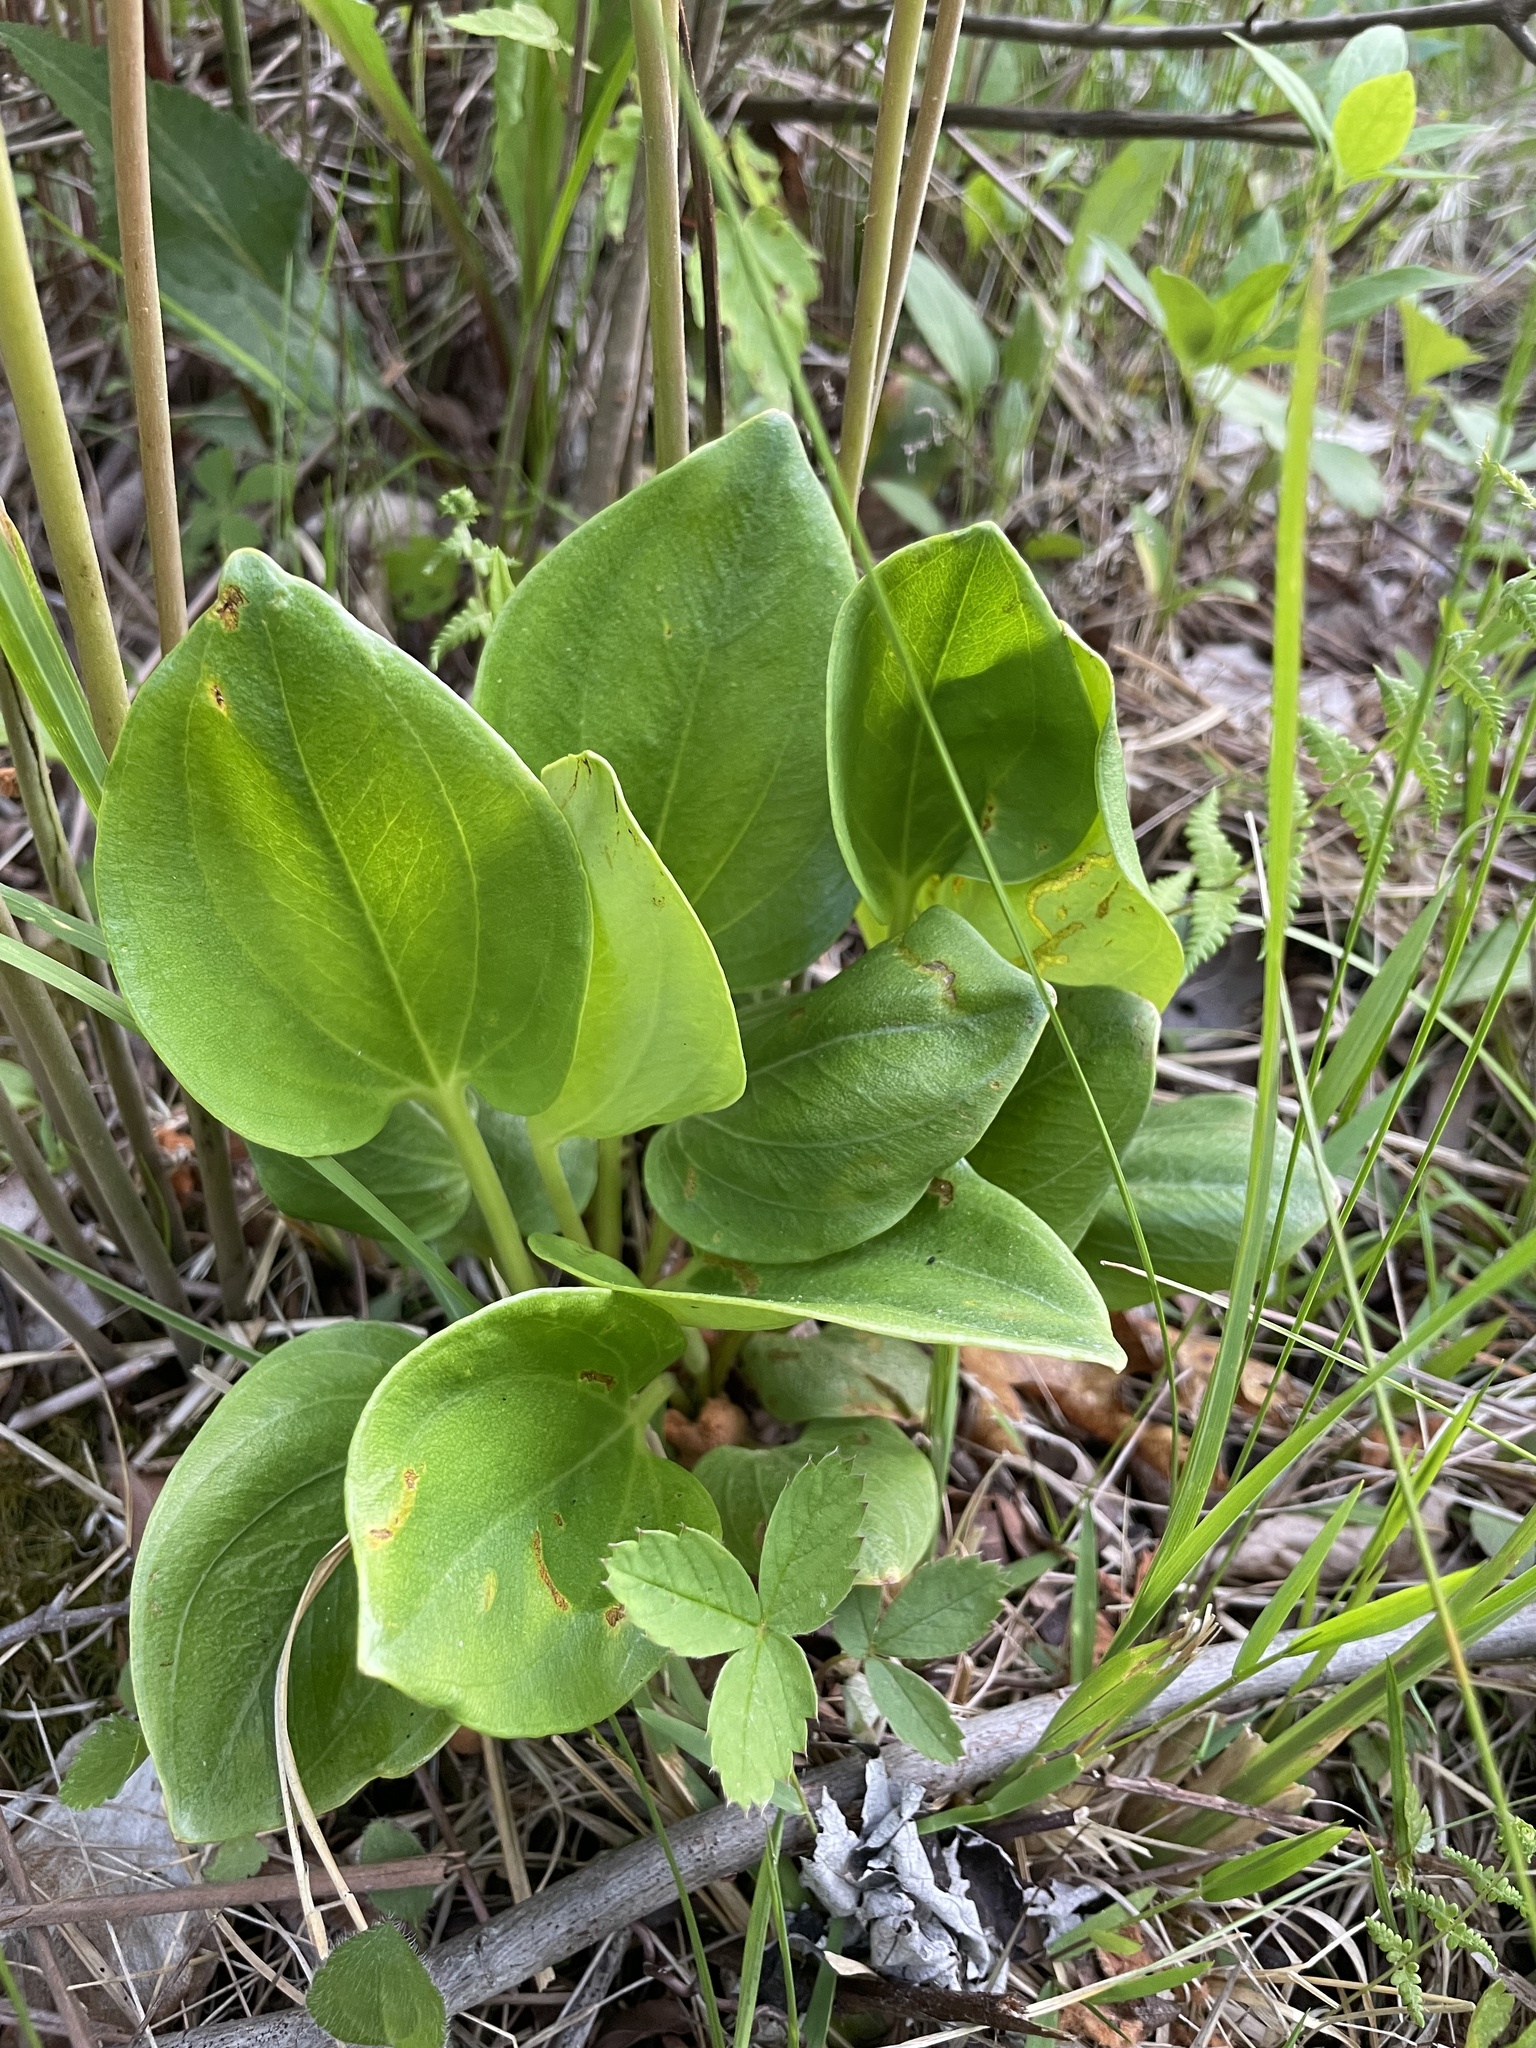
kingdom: Plantae
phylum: Tracheophyta
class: Magnoliopsida
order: Celastrales
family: Parnassiaceae
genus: Parnassia
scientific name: Parnassia grandifolia
